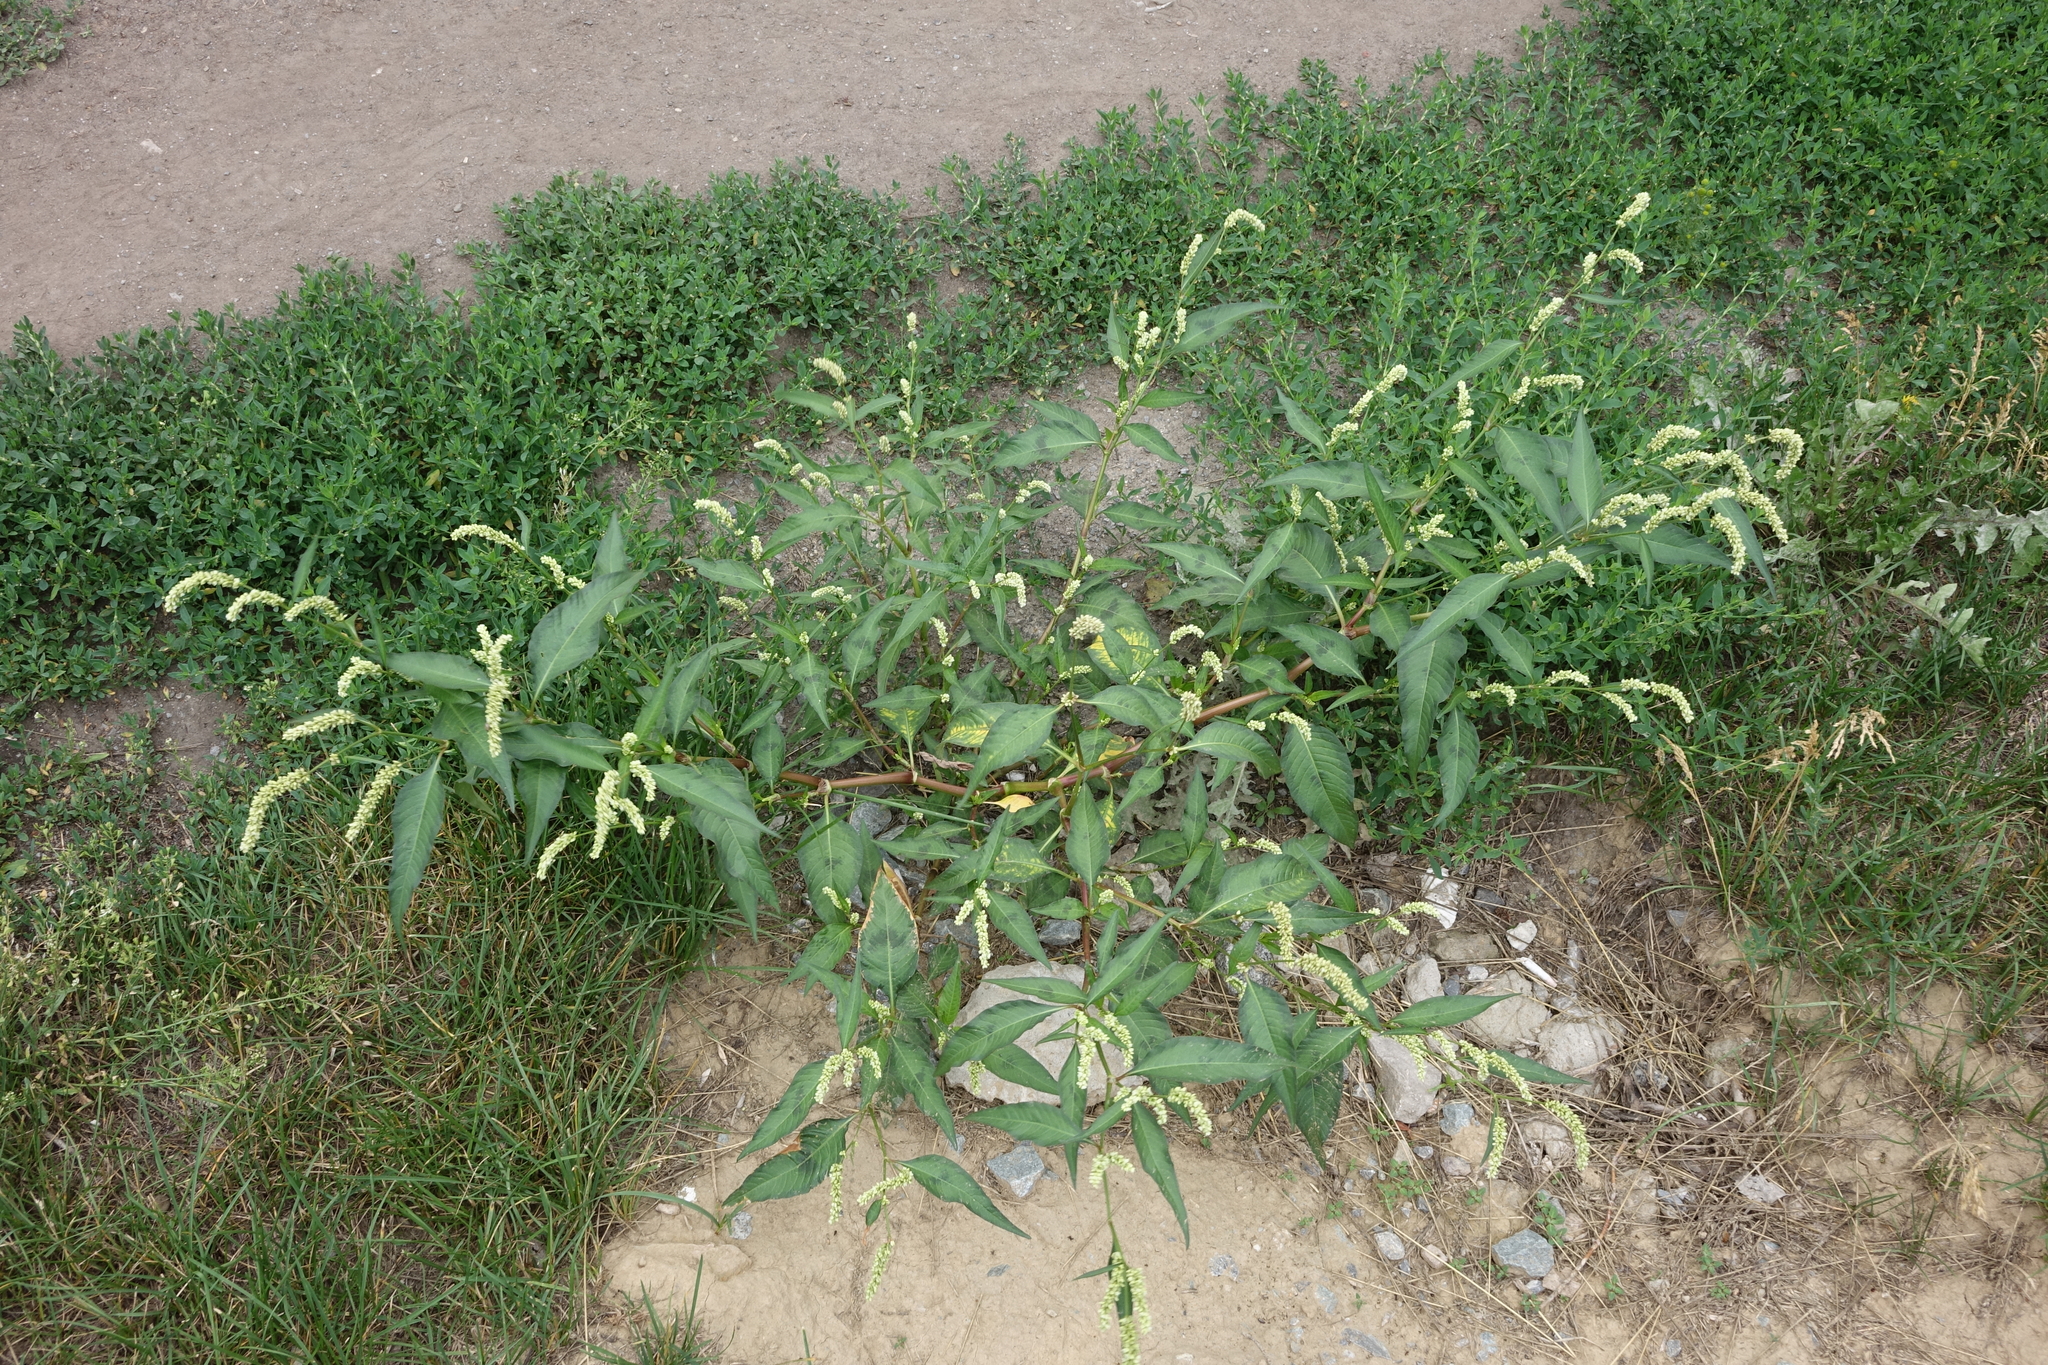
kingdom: Plantae
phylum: Tracheophyta
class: Magnoliopsida
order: Caryophyllales
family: Polygonaceae
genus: Persicaria
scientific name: Persicaria lapathifolia
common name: Curlytop knotweed
